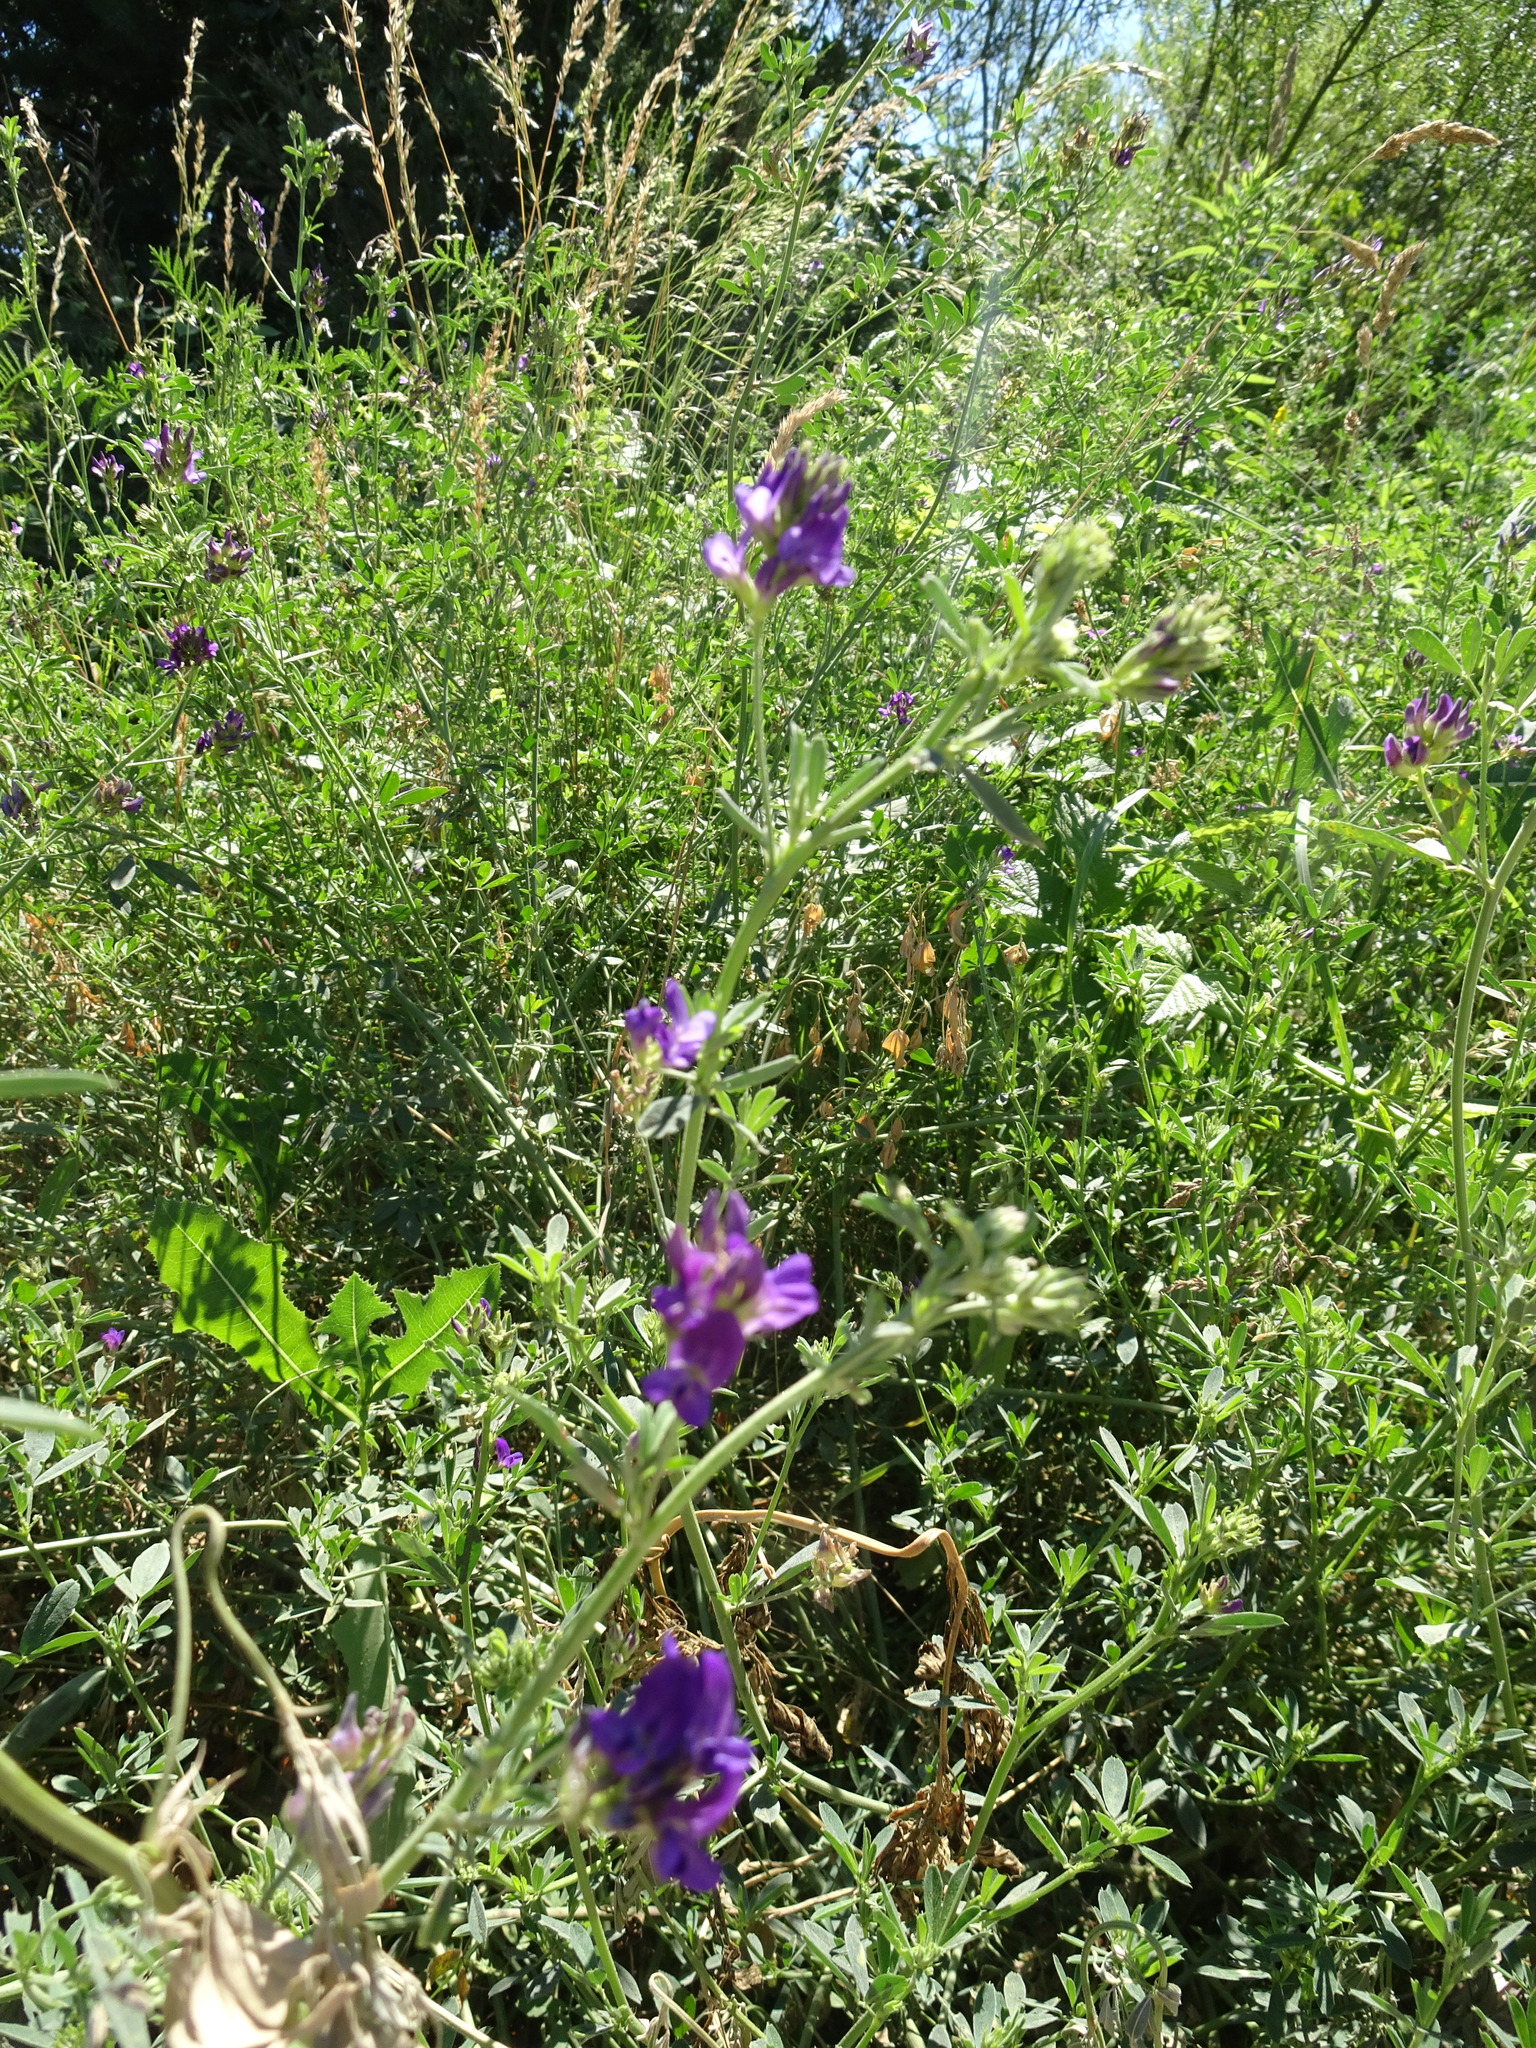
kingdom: Plantae
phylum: Tracheophyta
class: Magnoliopsida
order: Fabales
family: Fabaceae
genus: Medicago
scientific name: Medicago sativa
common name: Alfalfa
